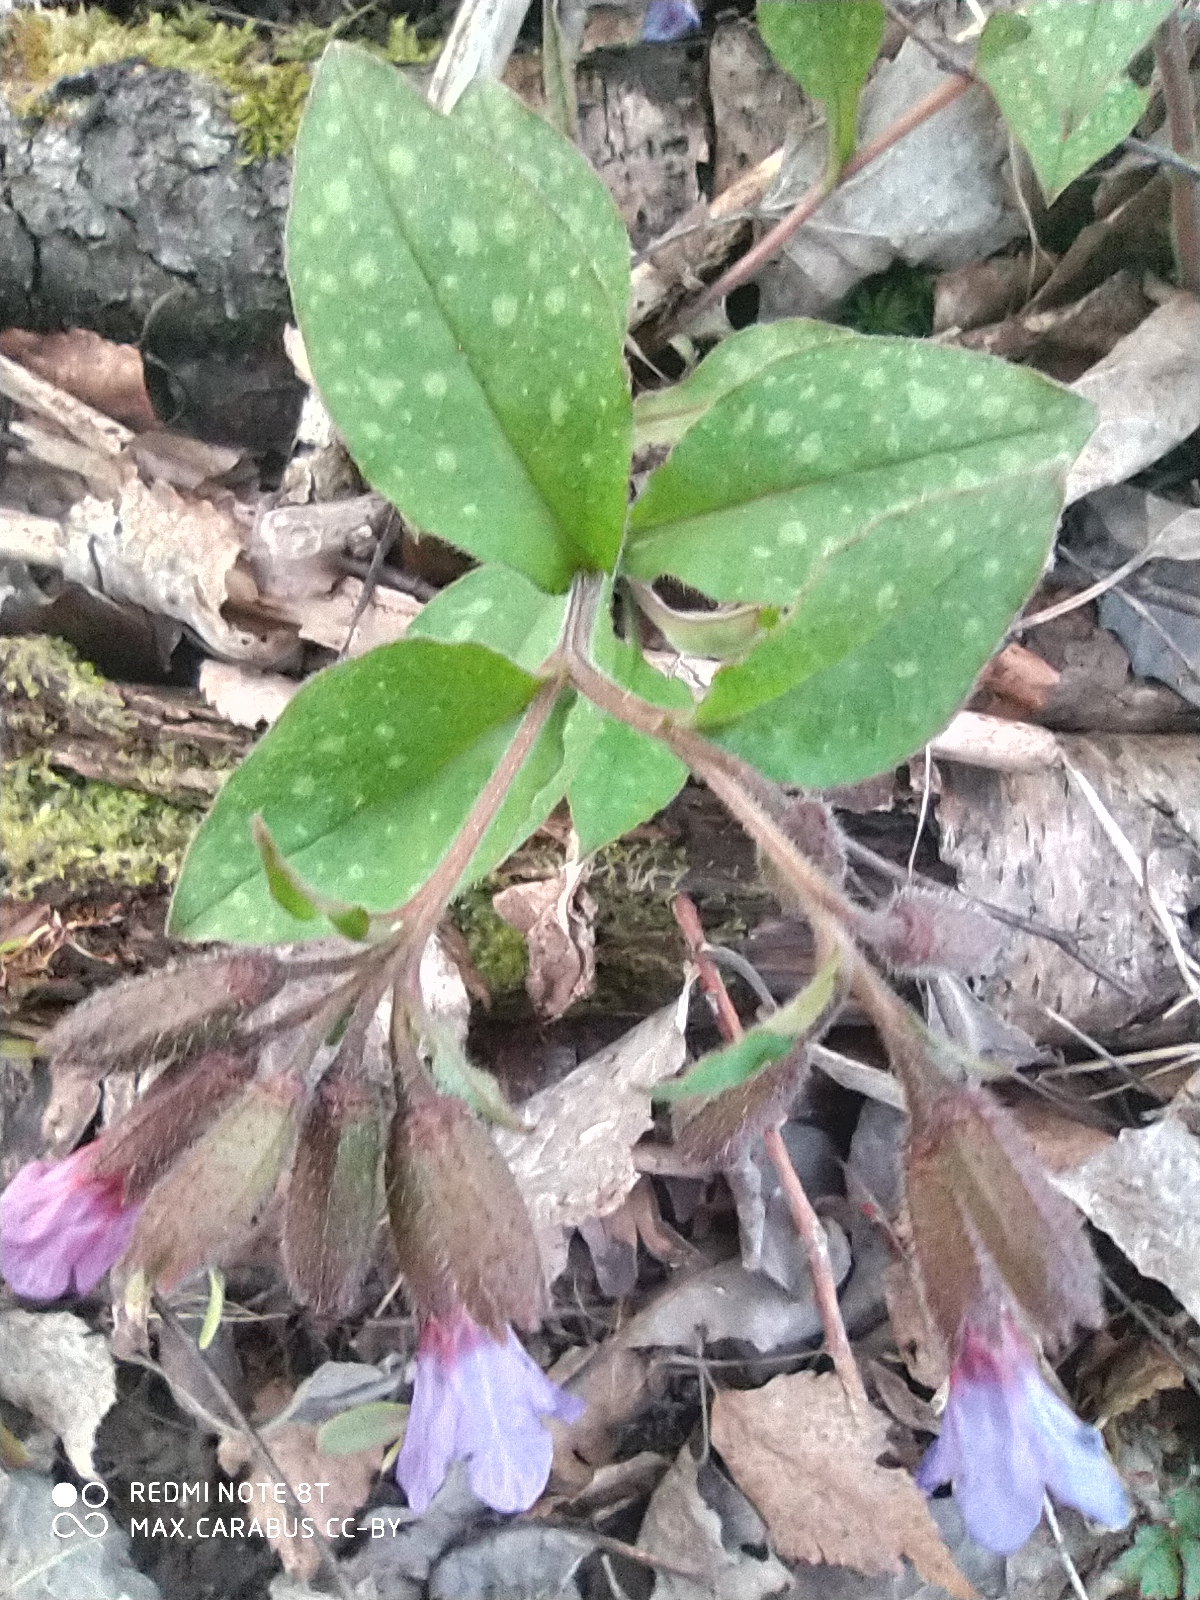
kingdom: Plantae
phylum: Tracheophyta
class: Magnoliopsida
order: Boraginales
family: Boraginaceae
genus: Pulmonaria
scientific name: Pulmonaria obscura
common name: Suffolk lungwort
